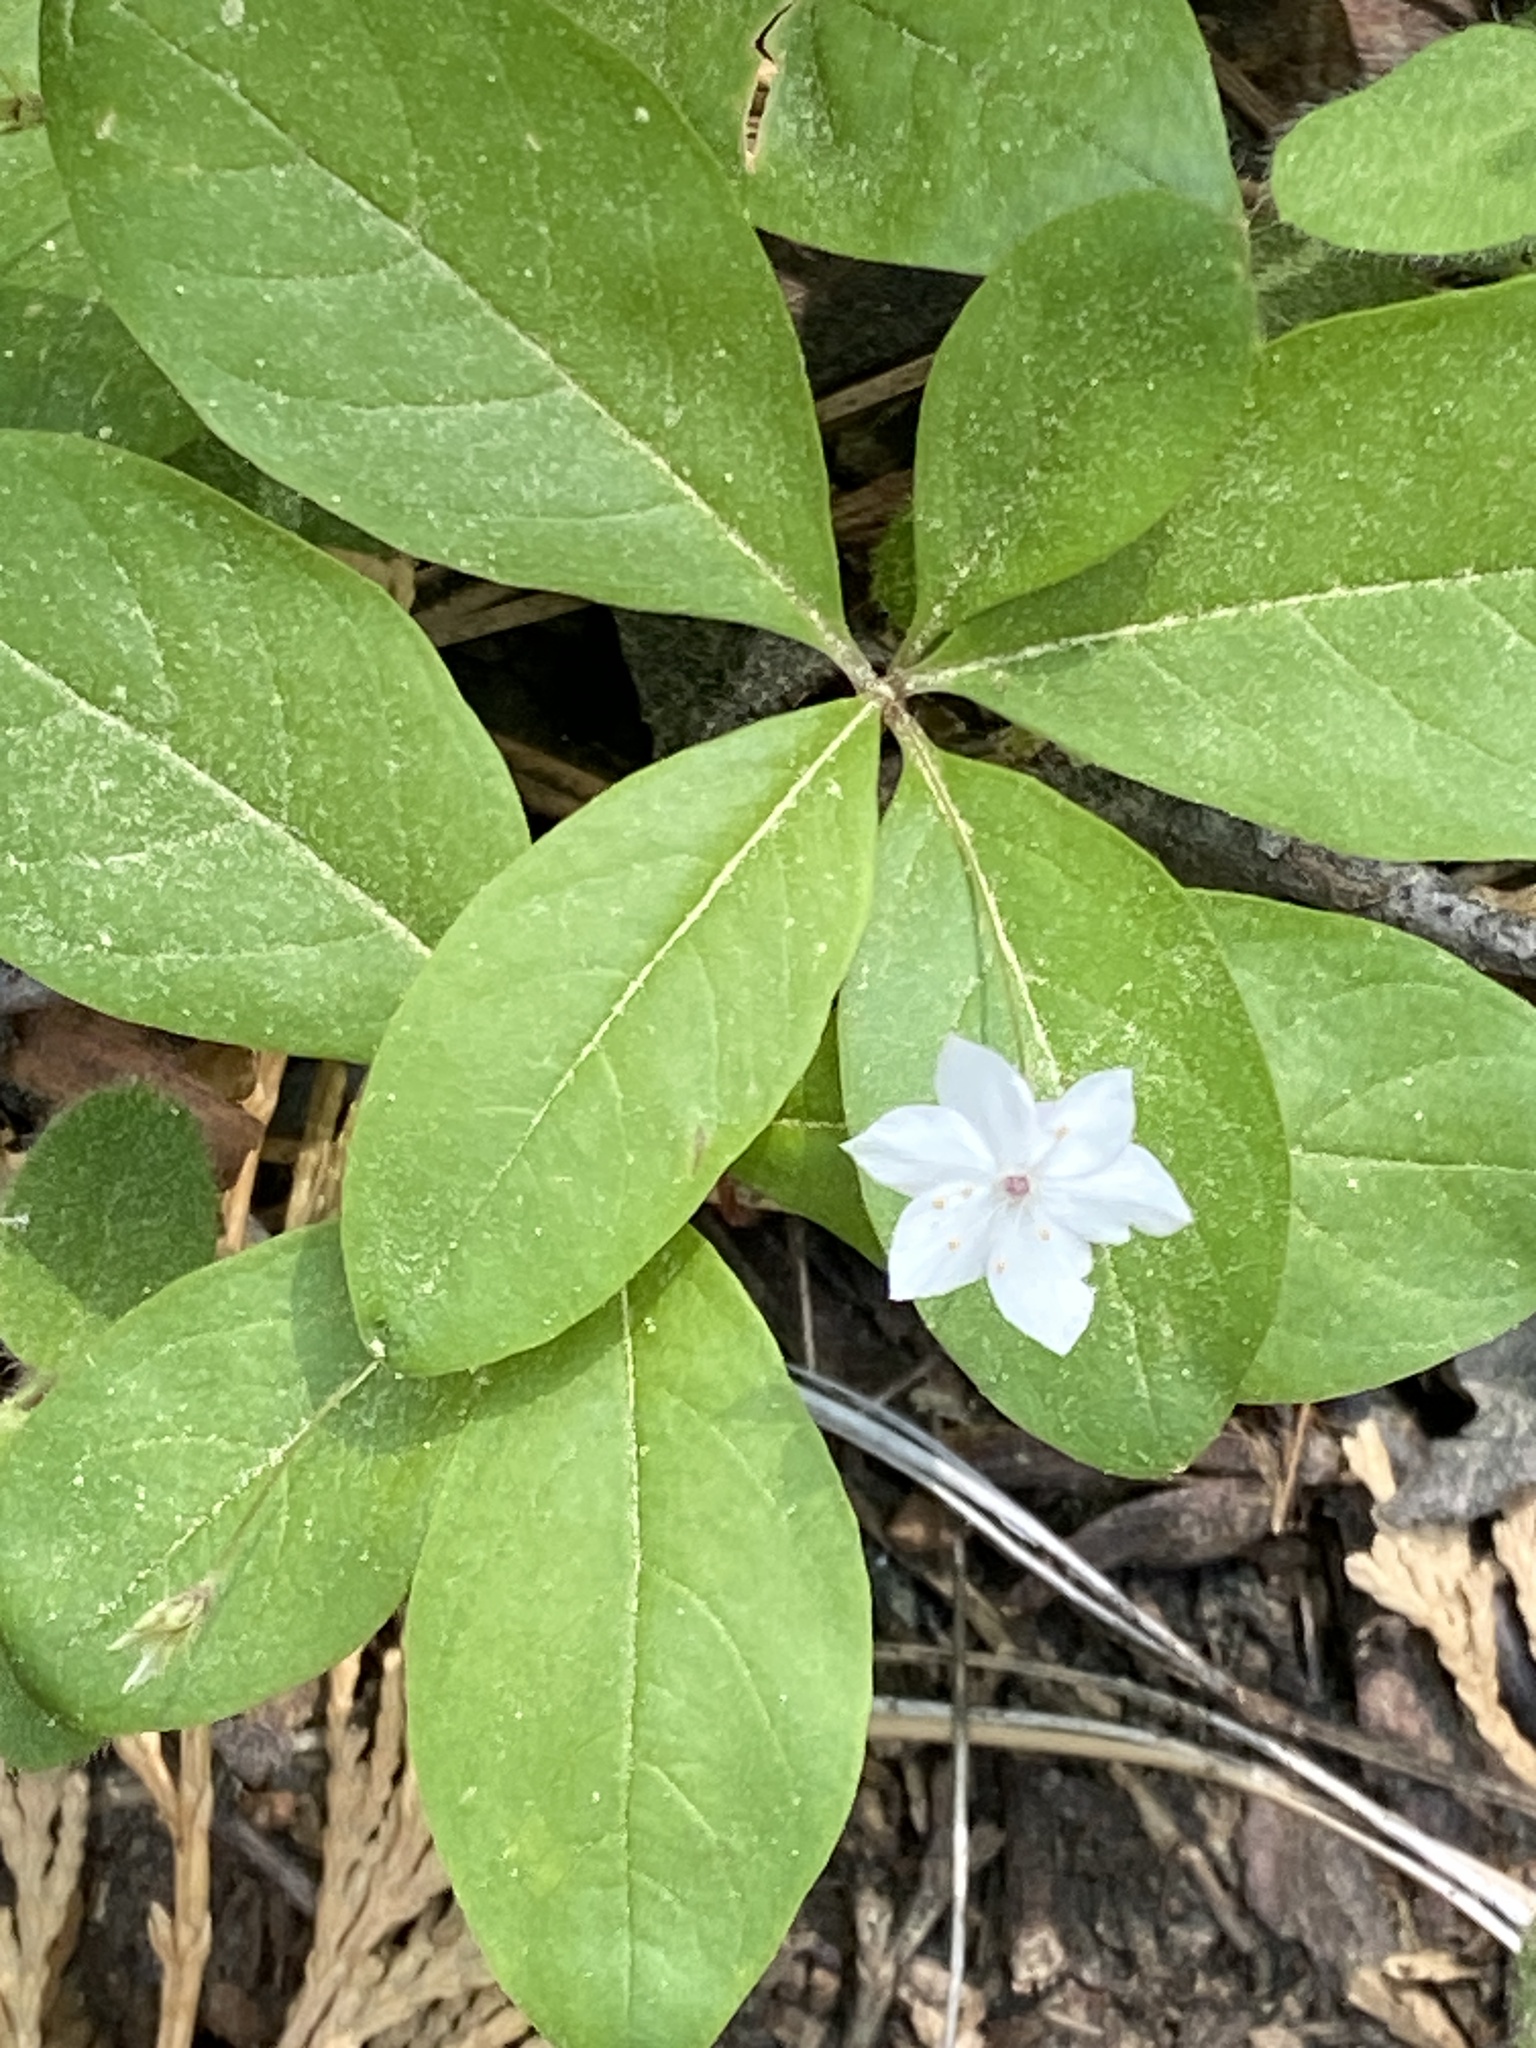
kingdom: Plantae
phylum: Tracheophyta
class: Magnoliopsida
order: Ericales
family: Primulaceae
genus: Lysimachia
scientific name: Lysimachia latifolia
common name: Pacific starflower
